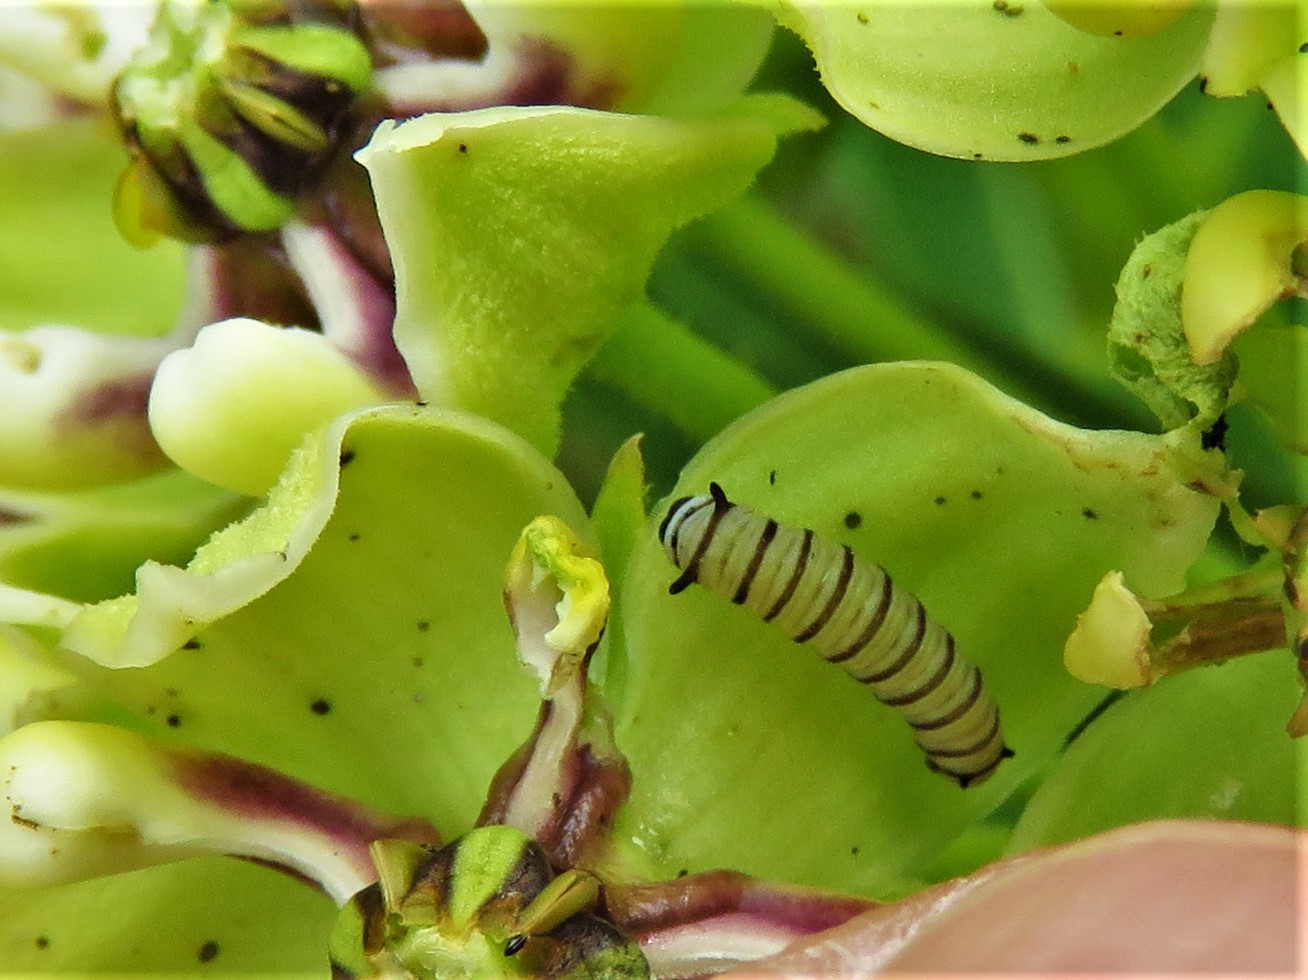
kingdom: Animalia
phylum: Arthropoda
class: Insecta
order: Lepidoptera
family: Nymphalidae
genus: Danaus
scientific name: Danaus plexippus
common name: Monarch
